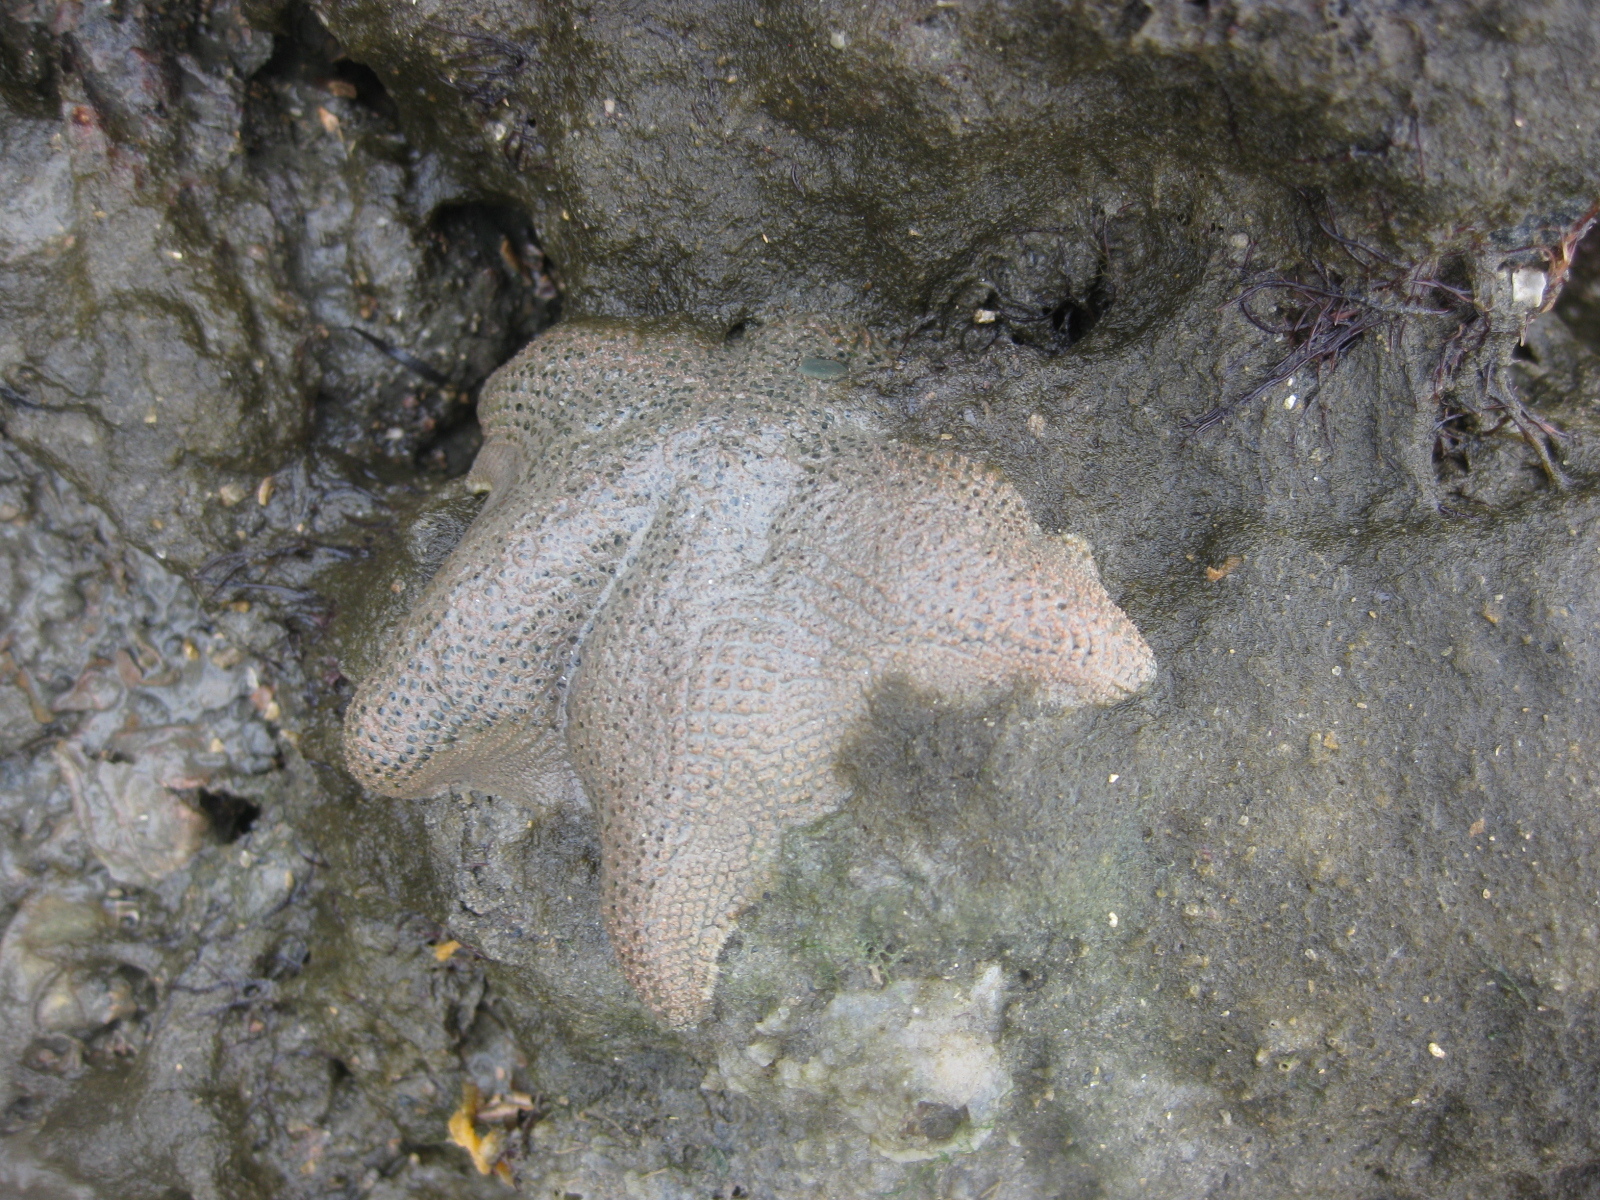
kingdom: Animalia
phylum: Echinodermata
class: Asteroidea
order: Valvatida
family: Asterinidae
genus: Patiriella
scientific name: Patiriella regularis
